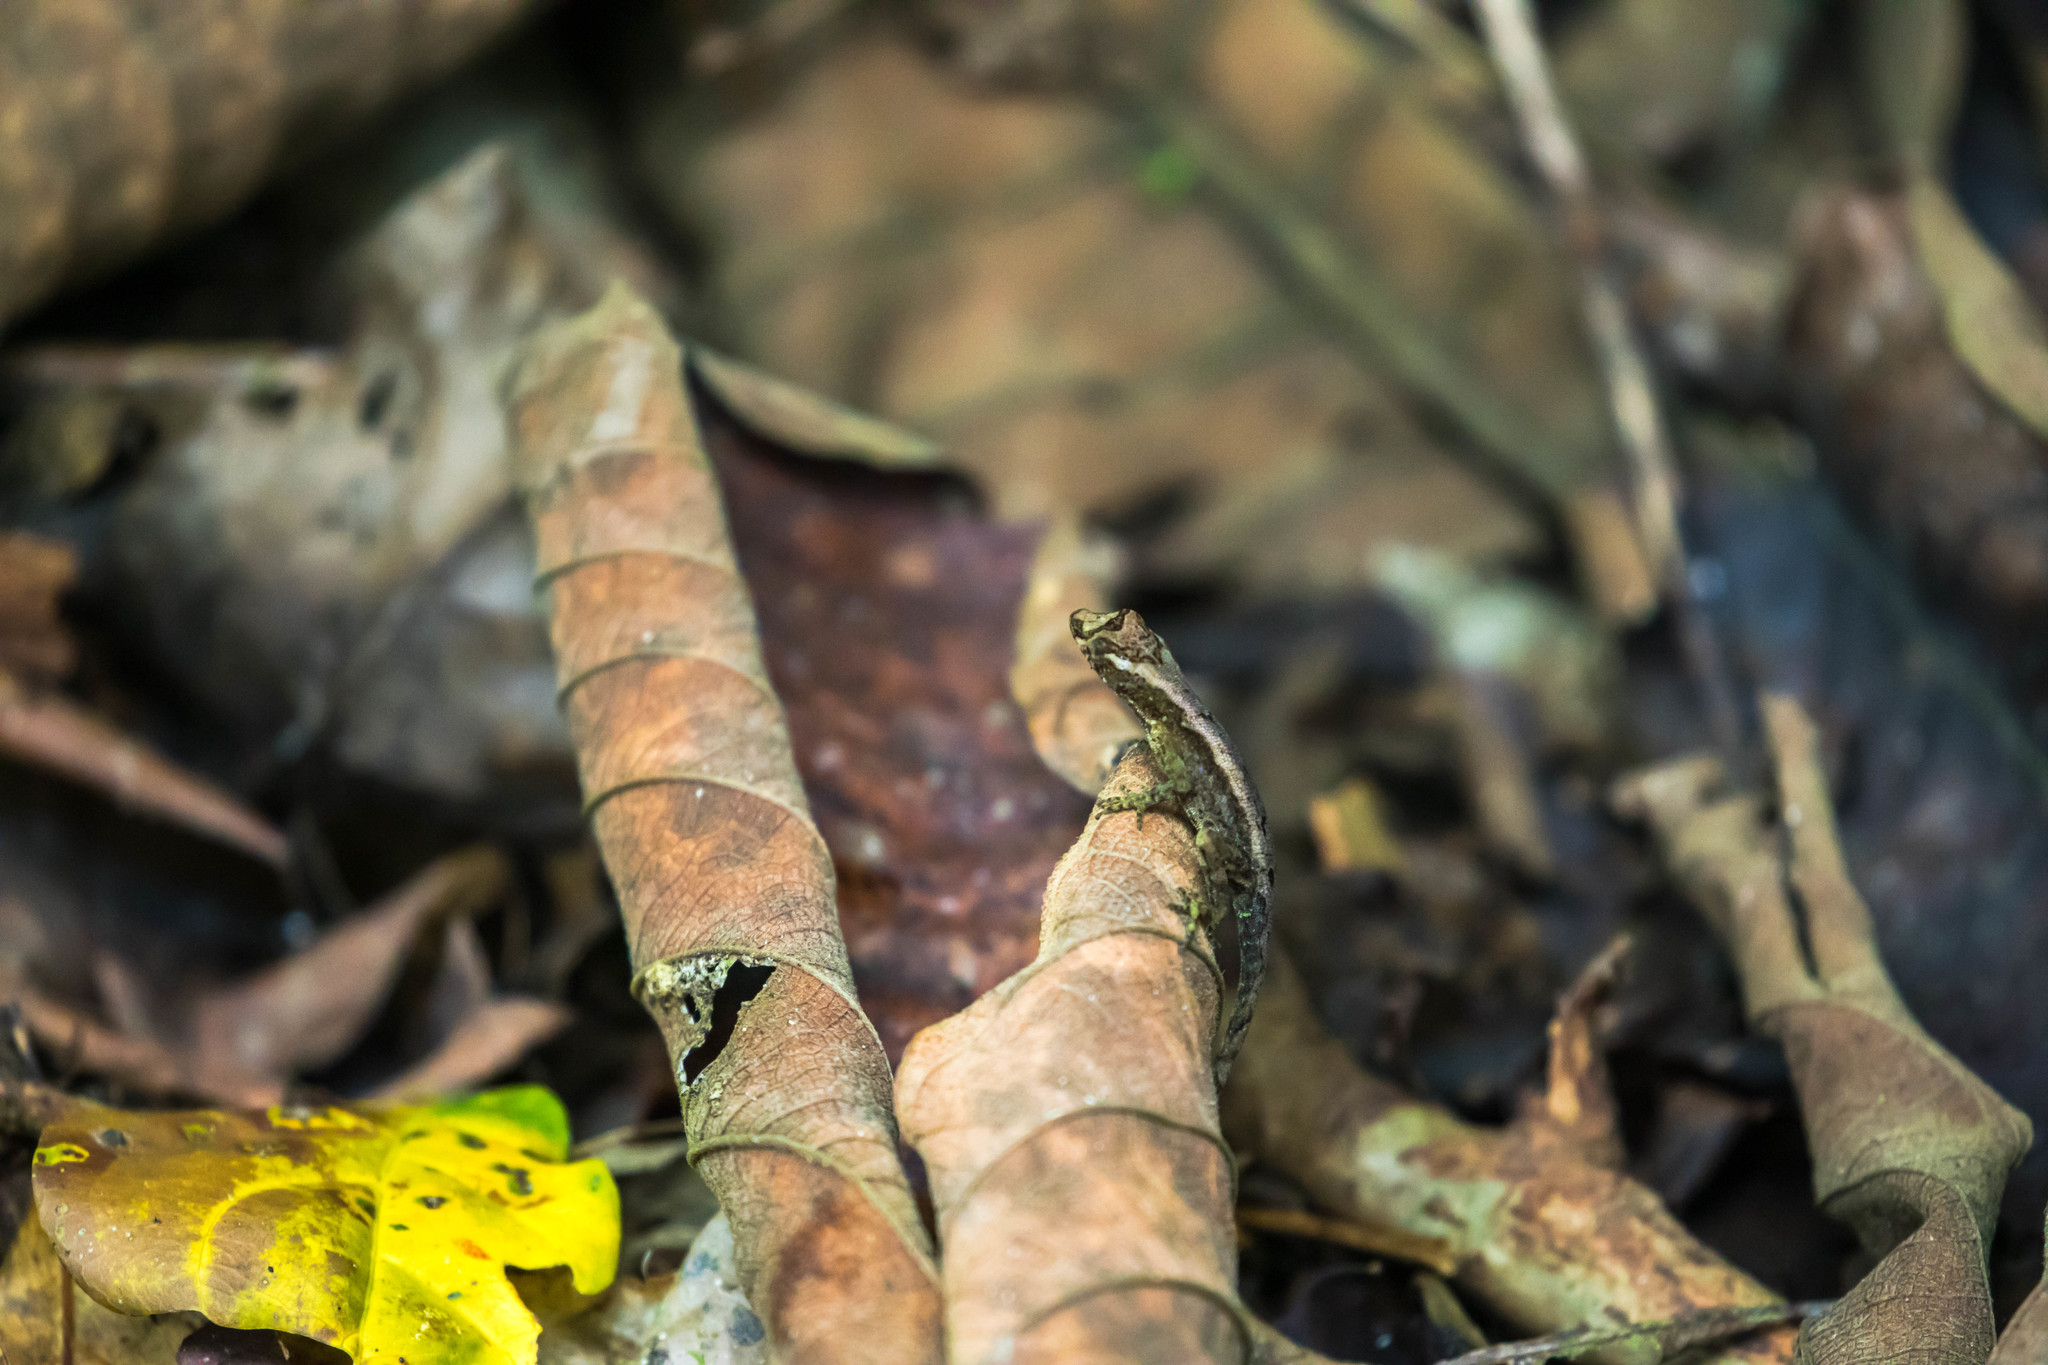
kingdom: Animalia
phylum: Chordata
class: Squamata
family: Dactyloidae
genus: Anolis
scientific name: Anolis humilis
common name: Humble anole
